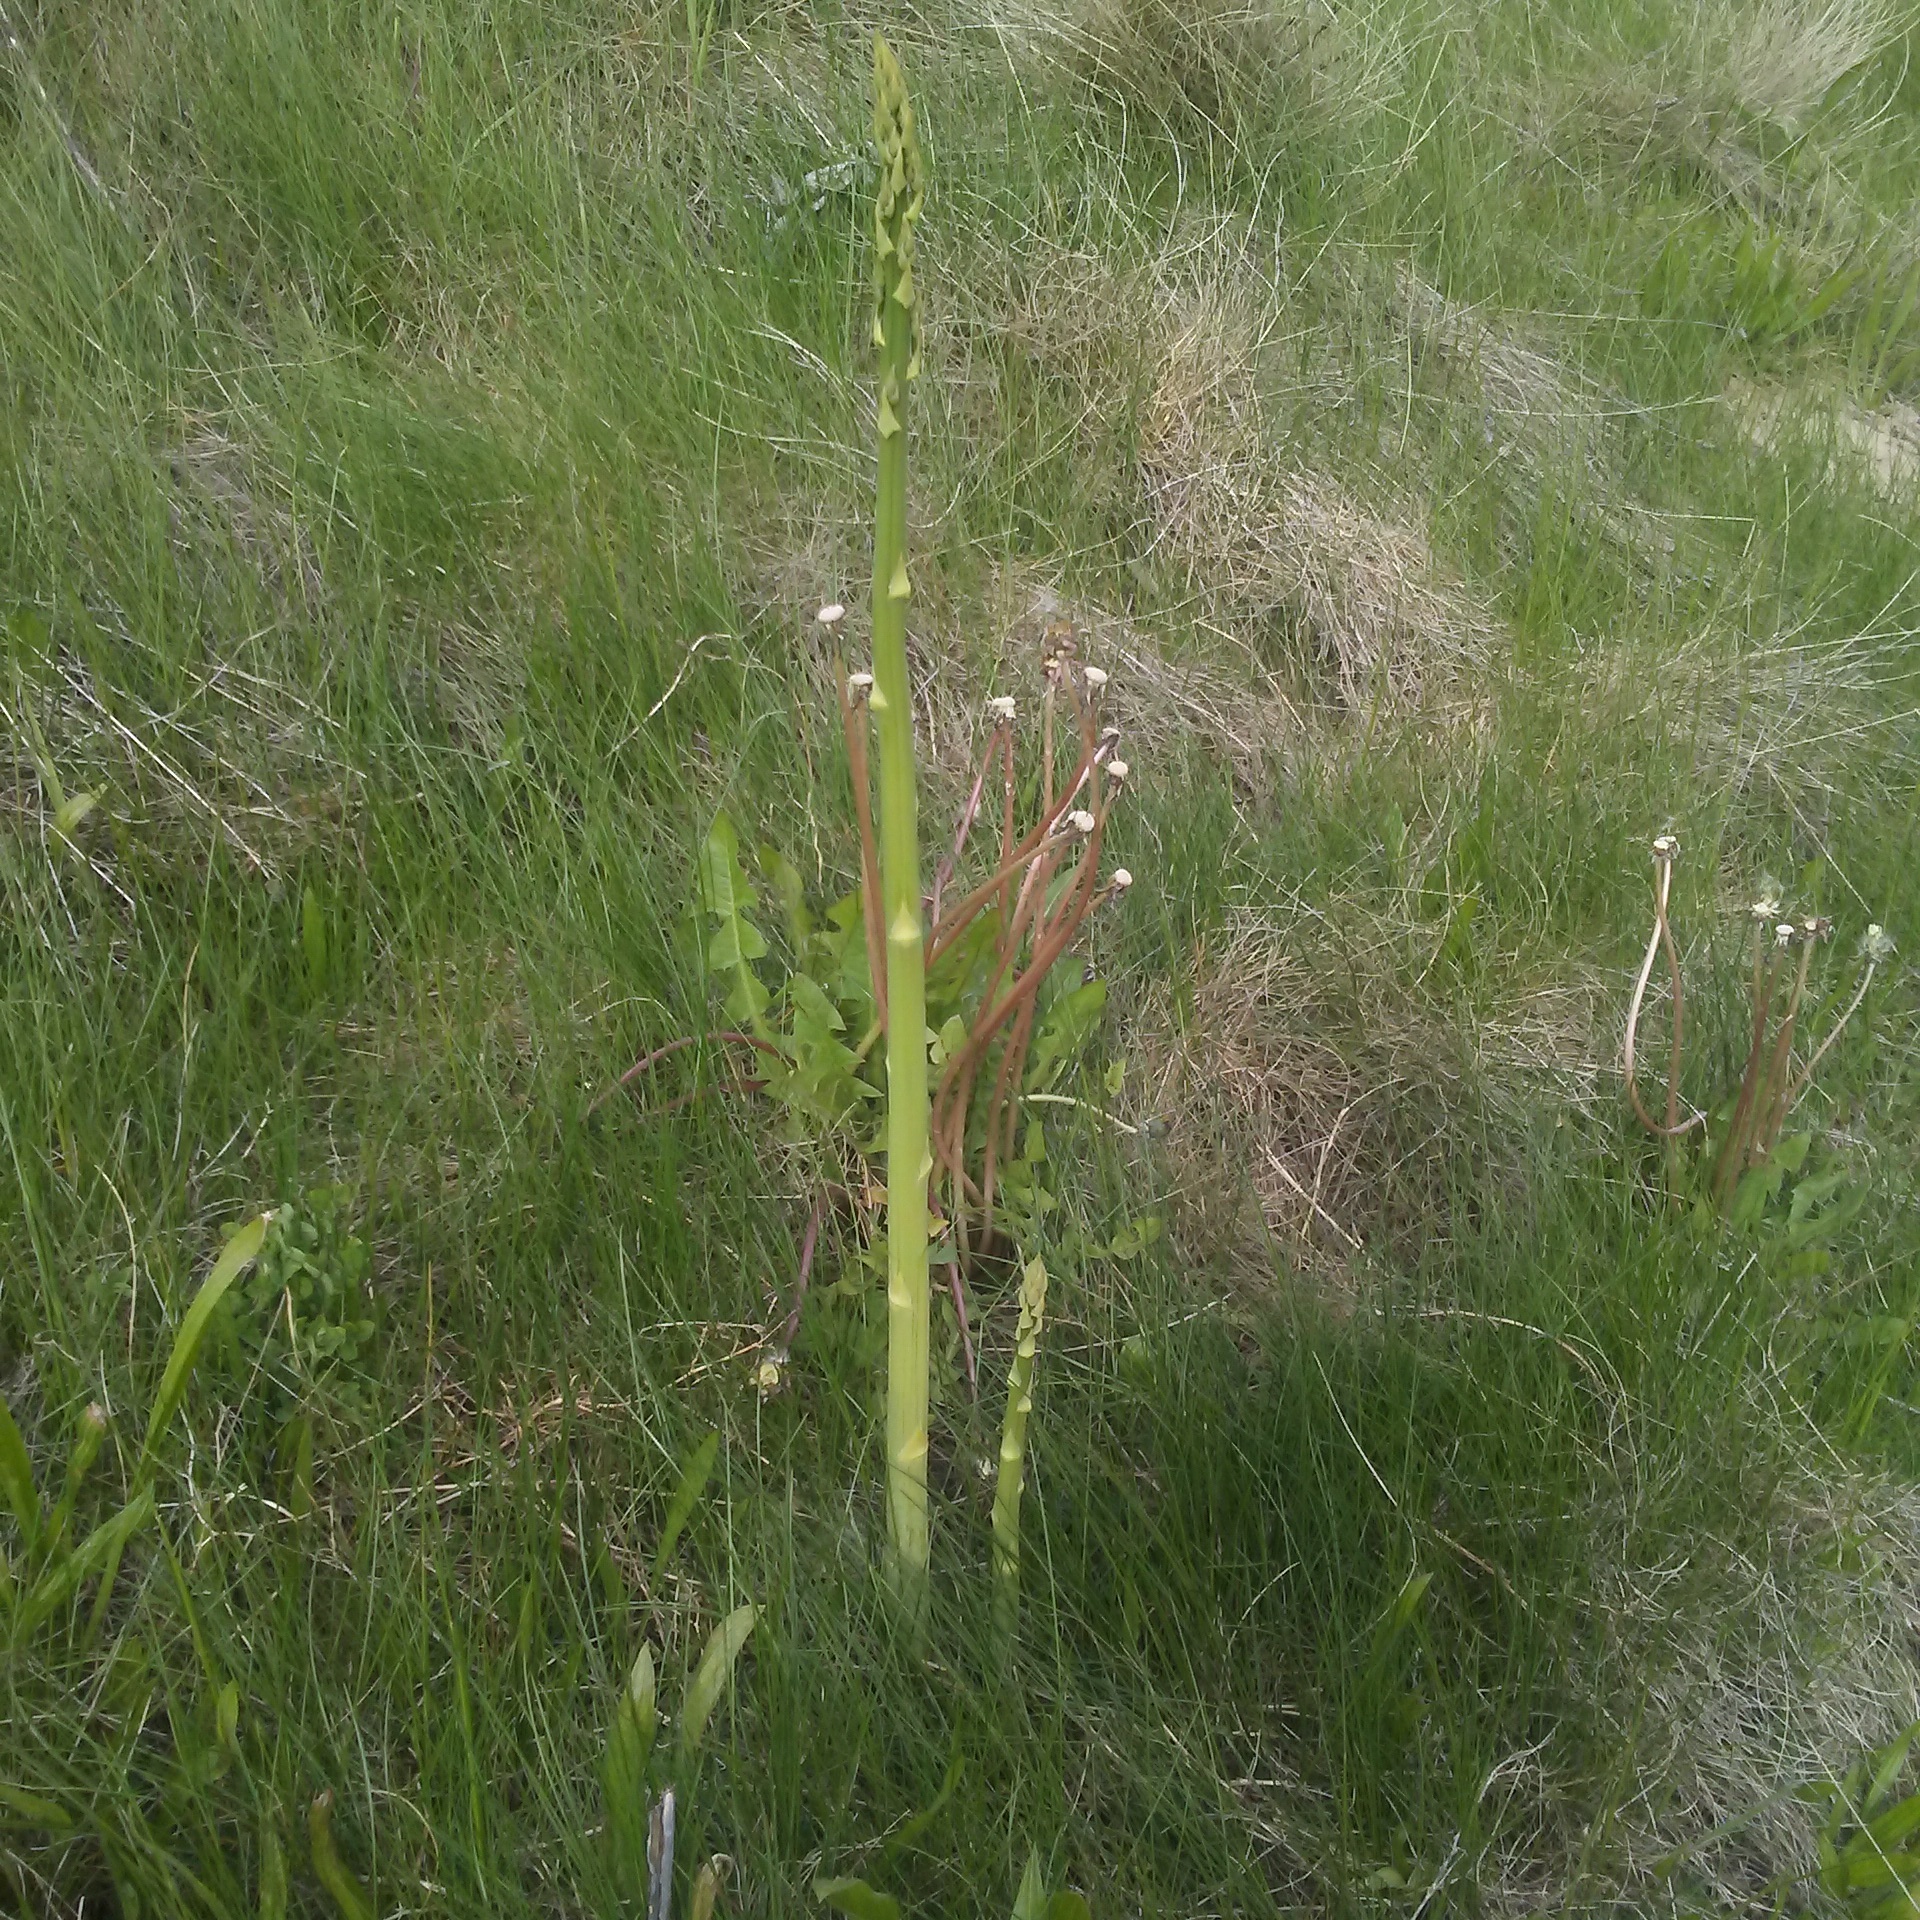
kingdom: Plantae
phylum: Tracheophyta
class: Liliopsida
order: Asparagales
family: Asparagaceae
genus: Asparagus
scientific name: Asparagus officinalis
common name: Garden asparagus
